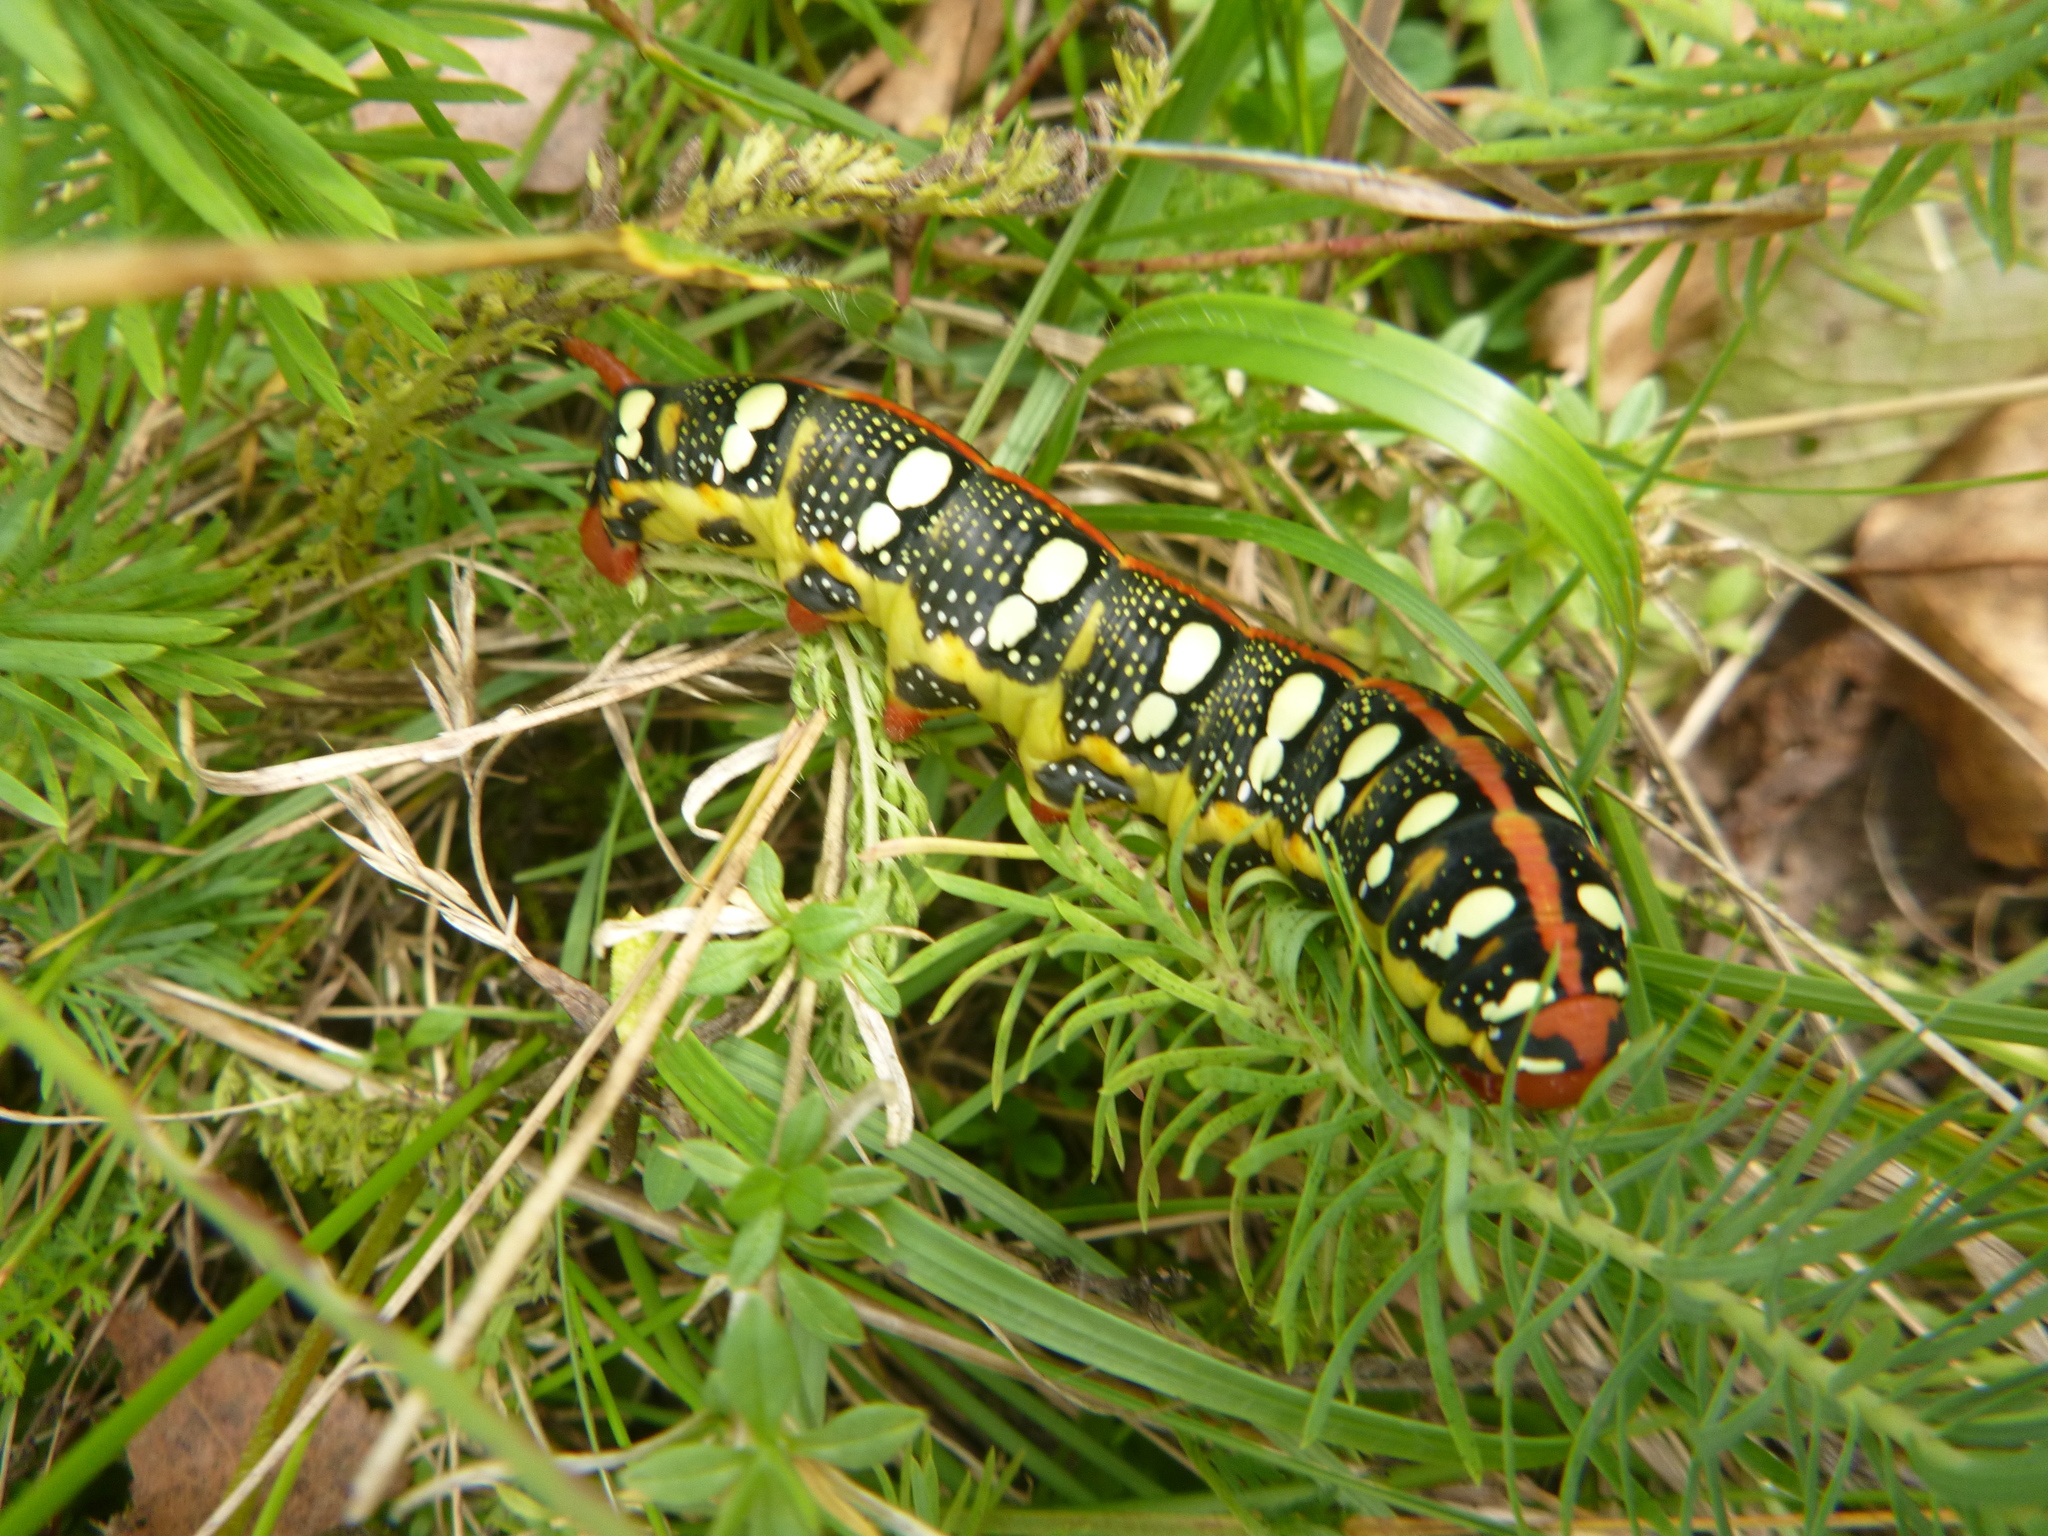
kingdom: Animalia
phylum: Arthropoda
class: Insecta
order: Lepidoptera
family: Sphingidae
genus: Hyles
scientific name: Hyles euphorbiae
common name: Spurge hawk-moth
